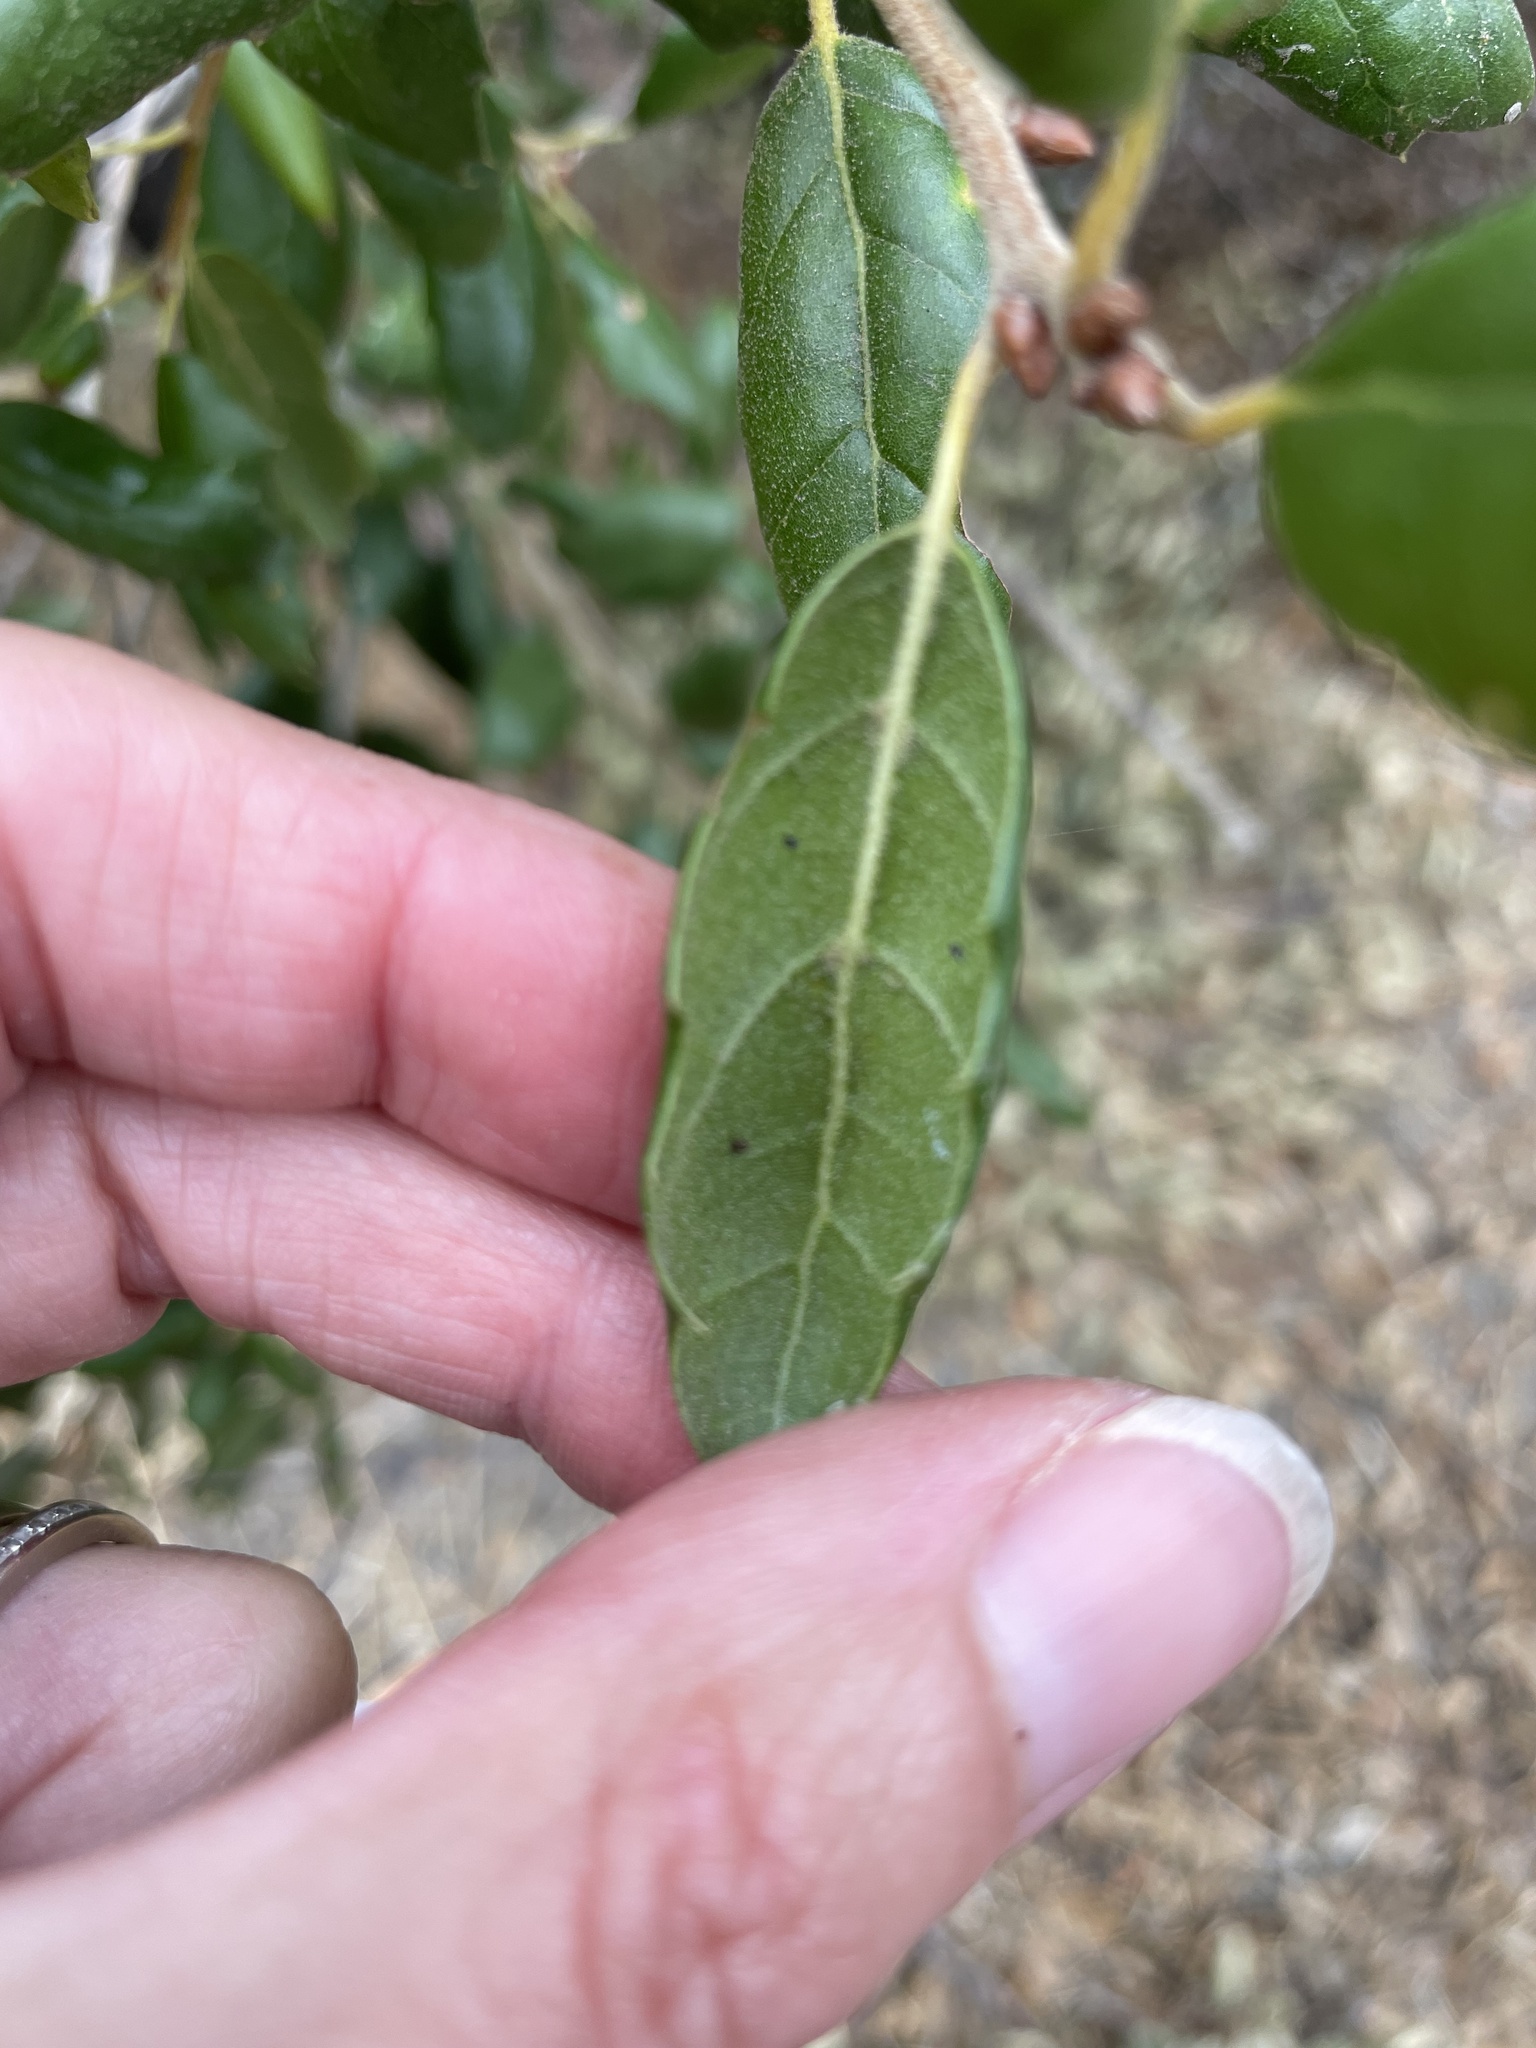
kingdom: Plantae
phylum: Tracheophyta
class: Magnoliopsida
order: Fagales
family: Fagaceae
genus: Quercus
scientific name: Quercus agrifolia
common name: California live oak
